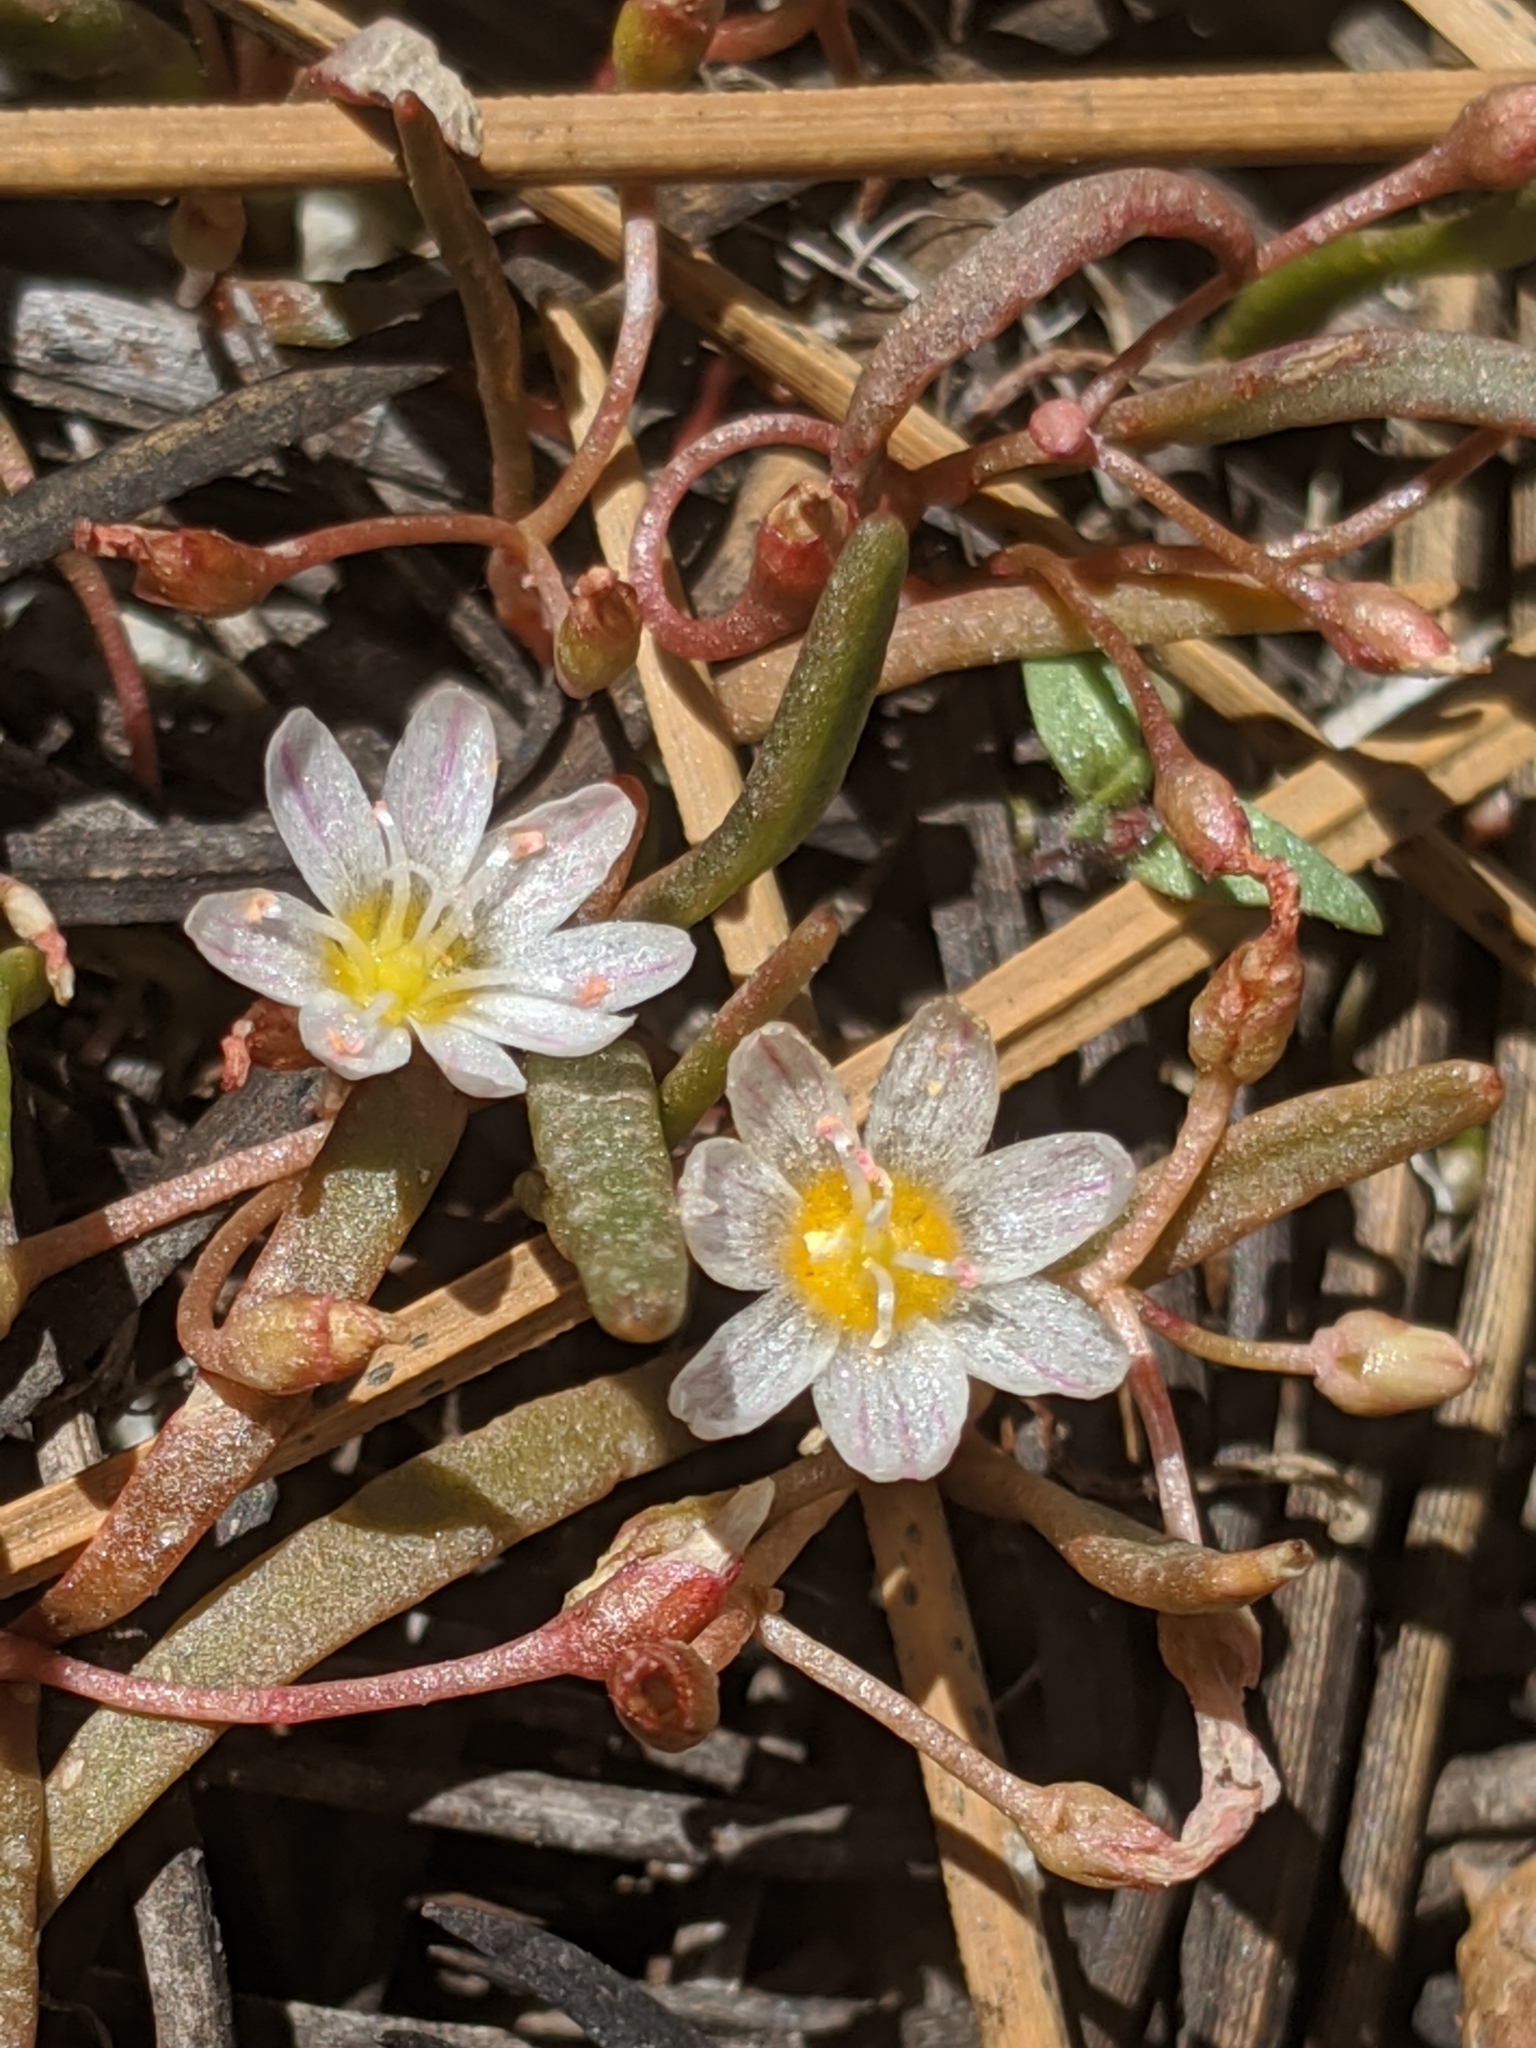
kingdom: Plantae
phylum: Tracheophyta
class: Magnoliopsida
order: Caryophyllales
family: Montiaceae
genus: Lewisia
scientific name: Lewisia triphylla
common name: Three-leaved bitterroot
